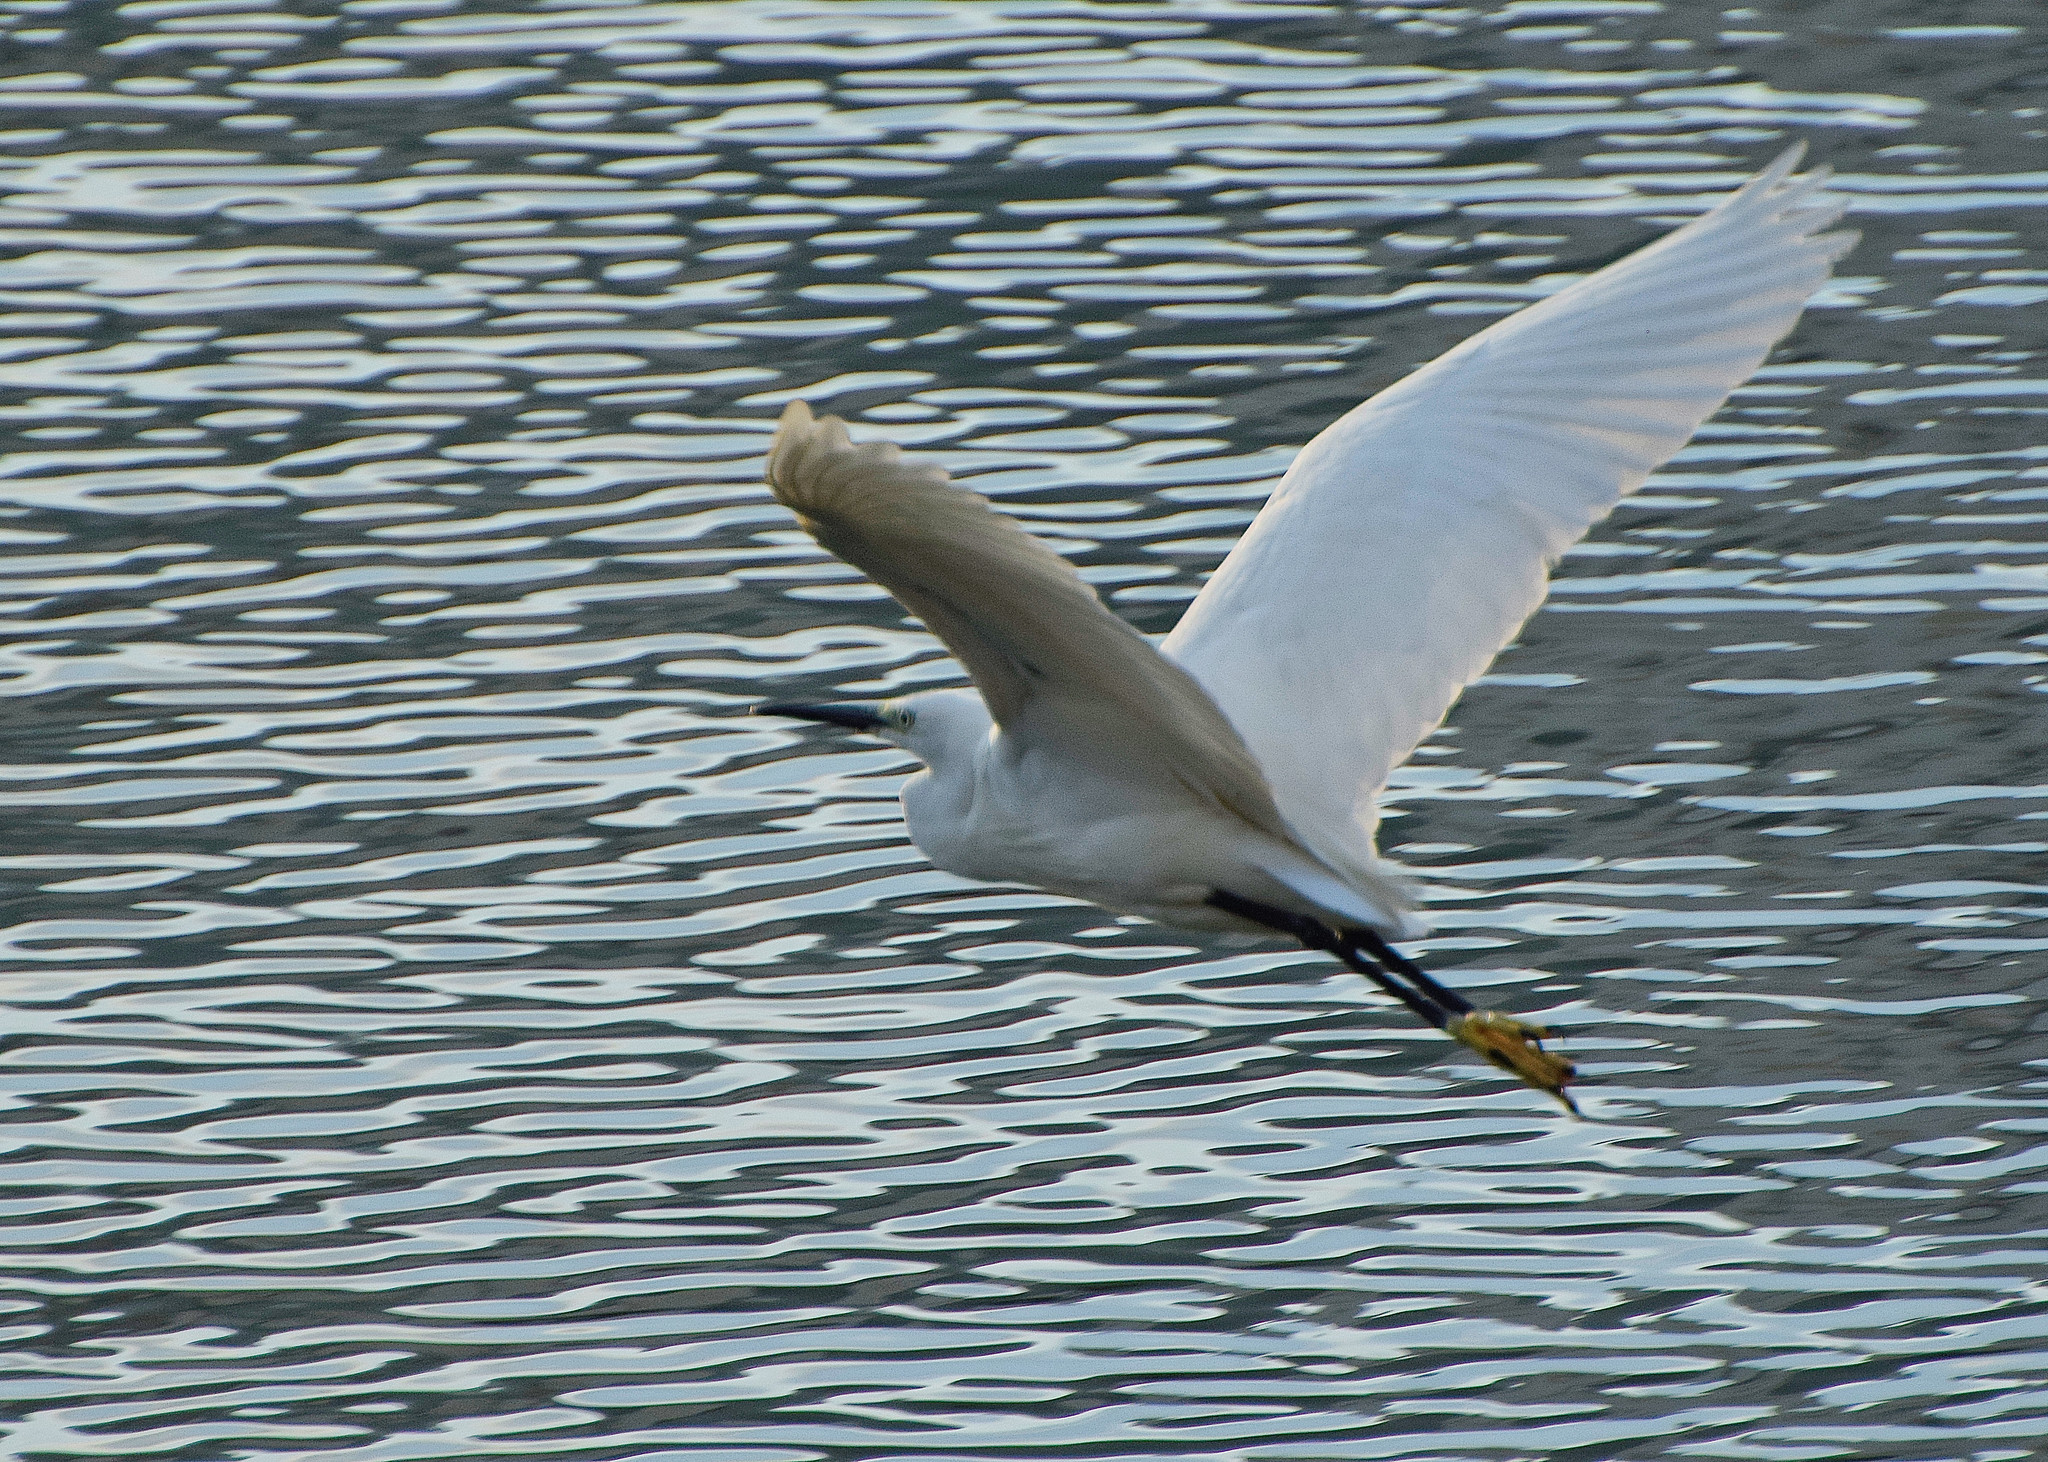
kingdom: Animalia
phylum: Chordata
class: Aves
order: Pelecaniformes
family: Ardeidae
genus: Egretta
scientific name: Egretta garzetta
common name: Little egret
